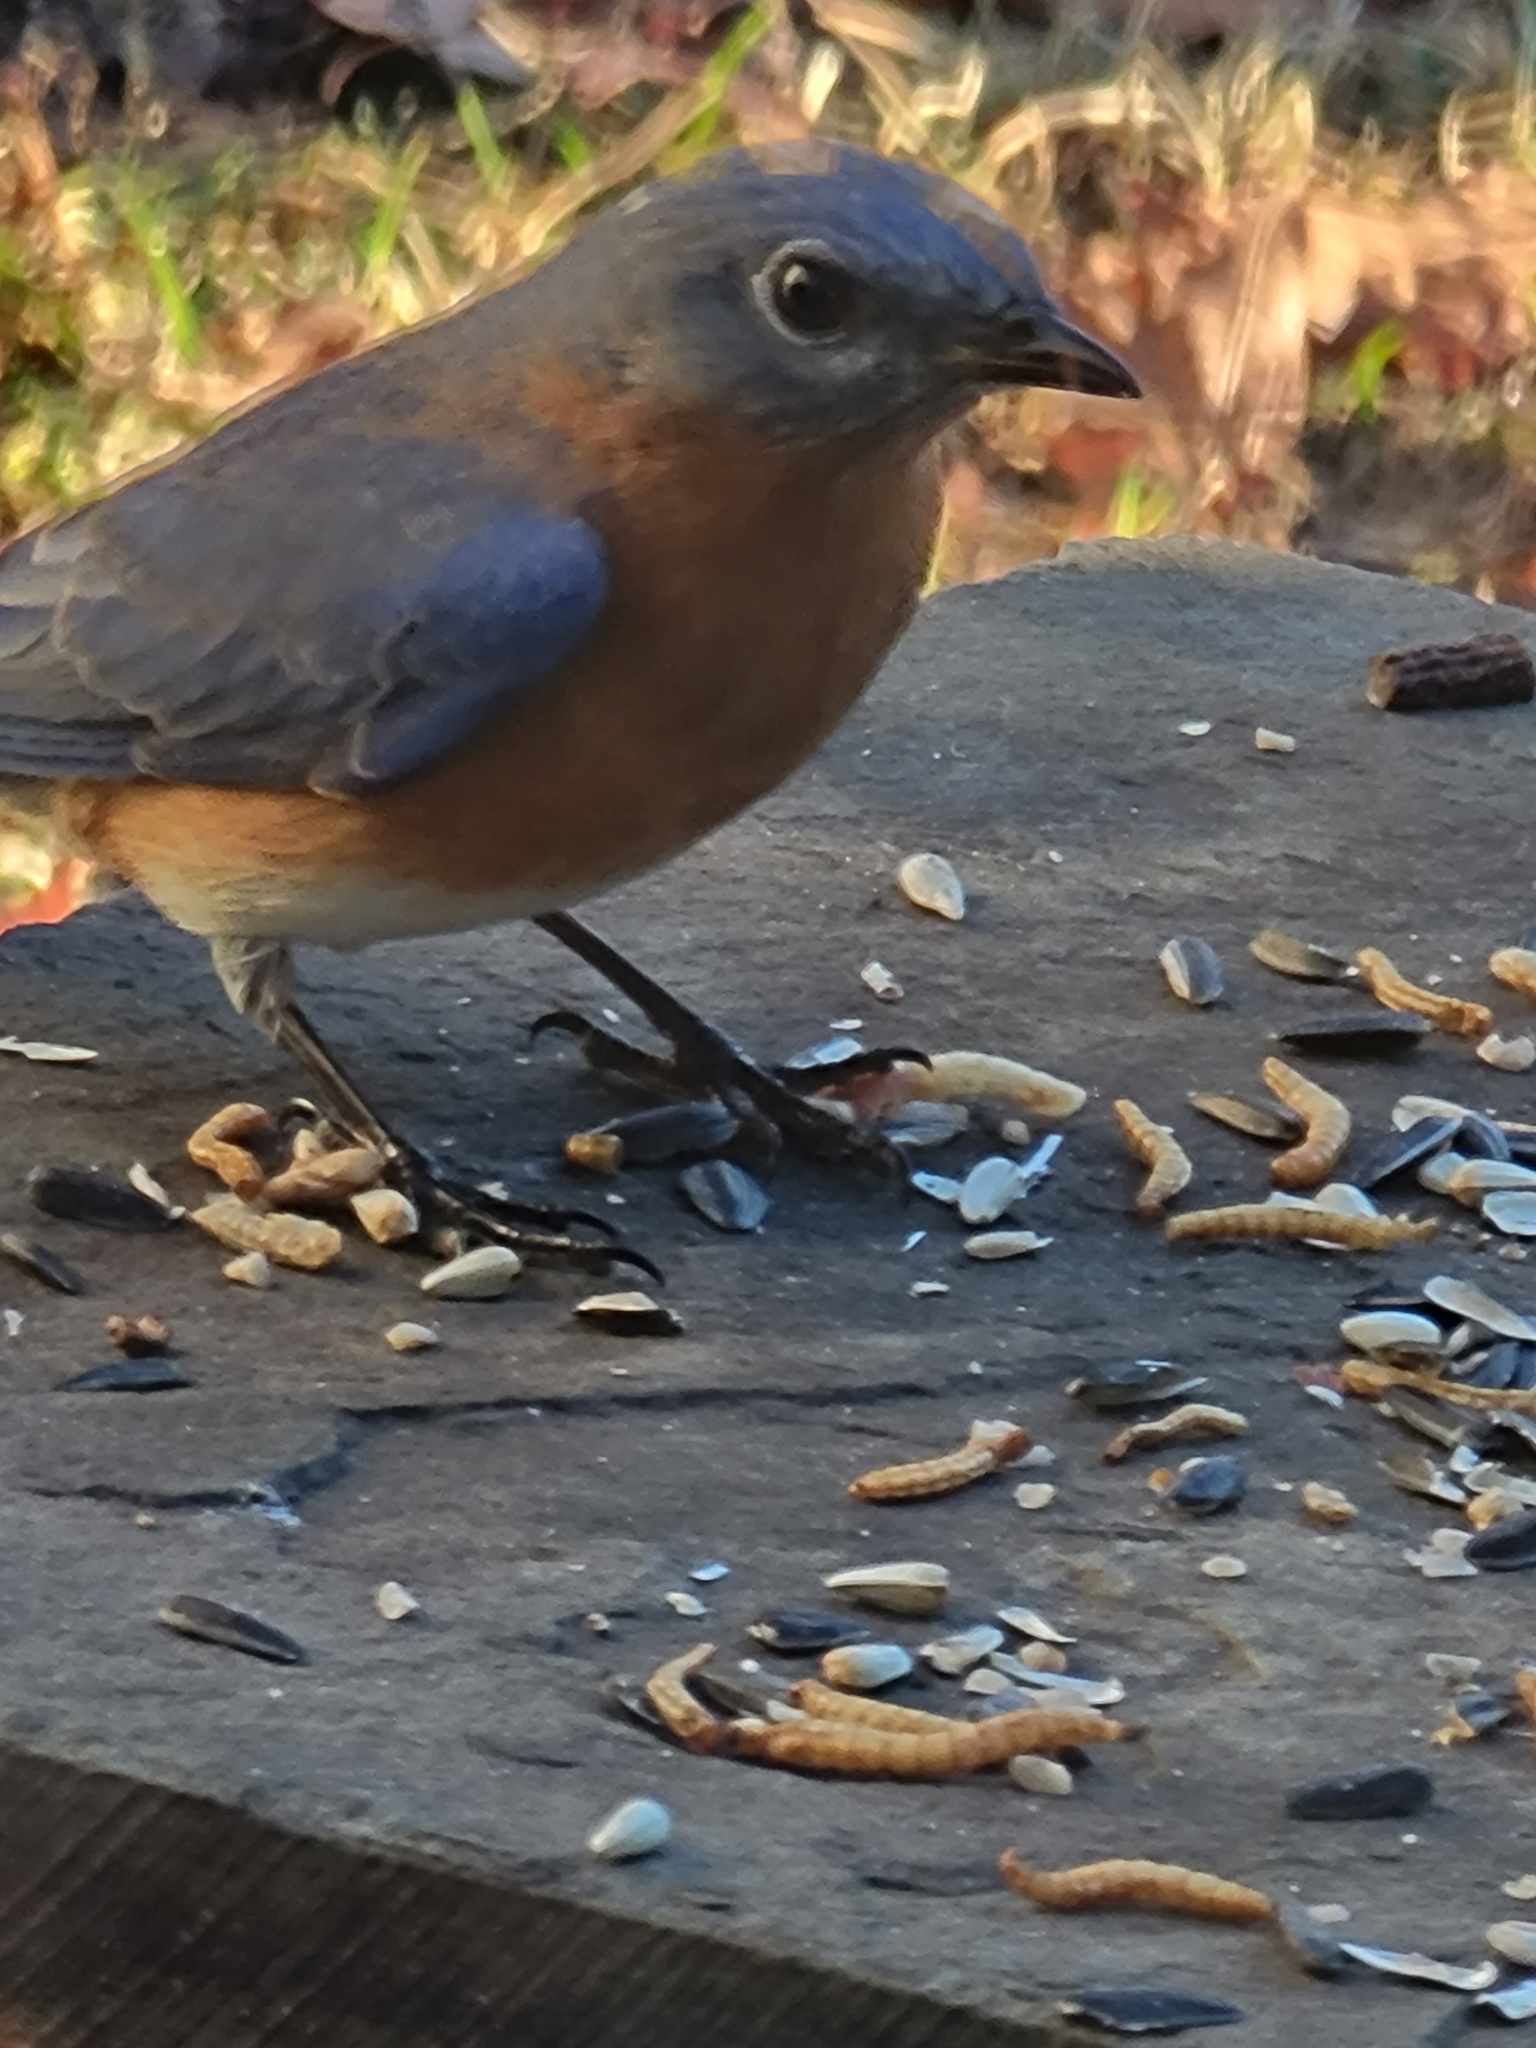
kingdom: Animalia
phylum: Chordata
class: Aves
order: Passeriformes
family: Turdidae
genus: Sialia
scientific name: Sialia sialis
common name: Eastern bluebird
